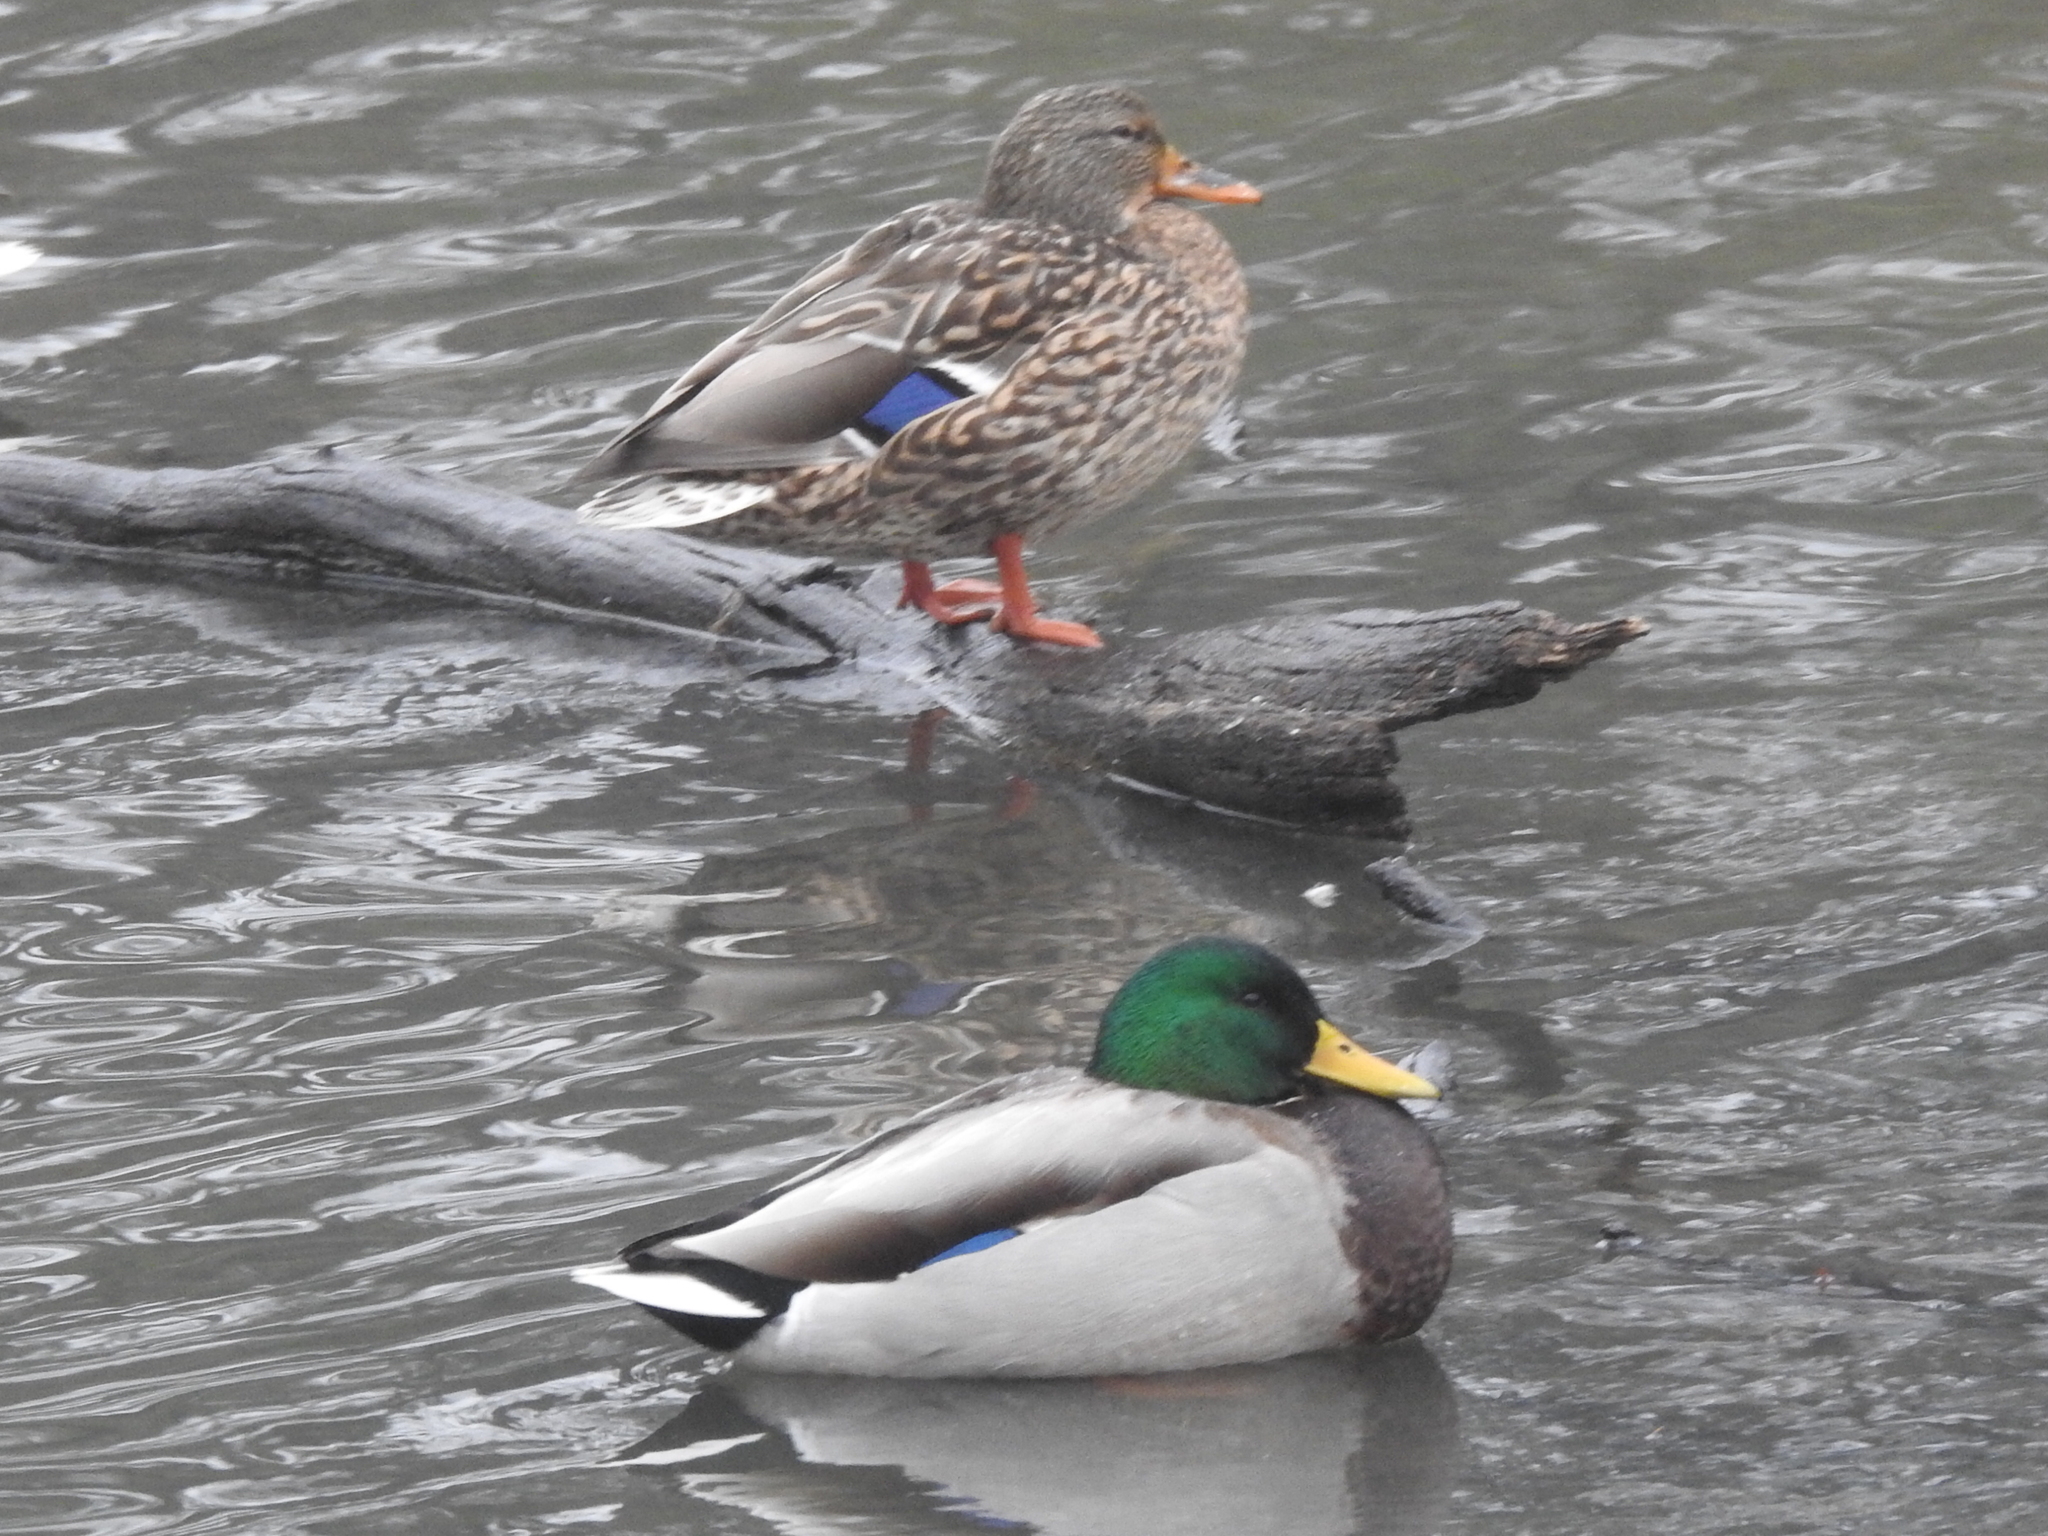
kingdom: Animalia
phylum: Chordata
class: Aves
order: Anseriformes
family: Anatidae
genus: Anas
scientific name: Anas platyrhynchos
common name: Mallard
